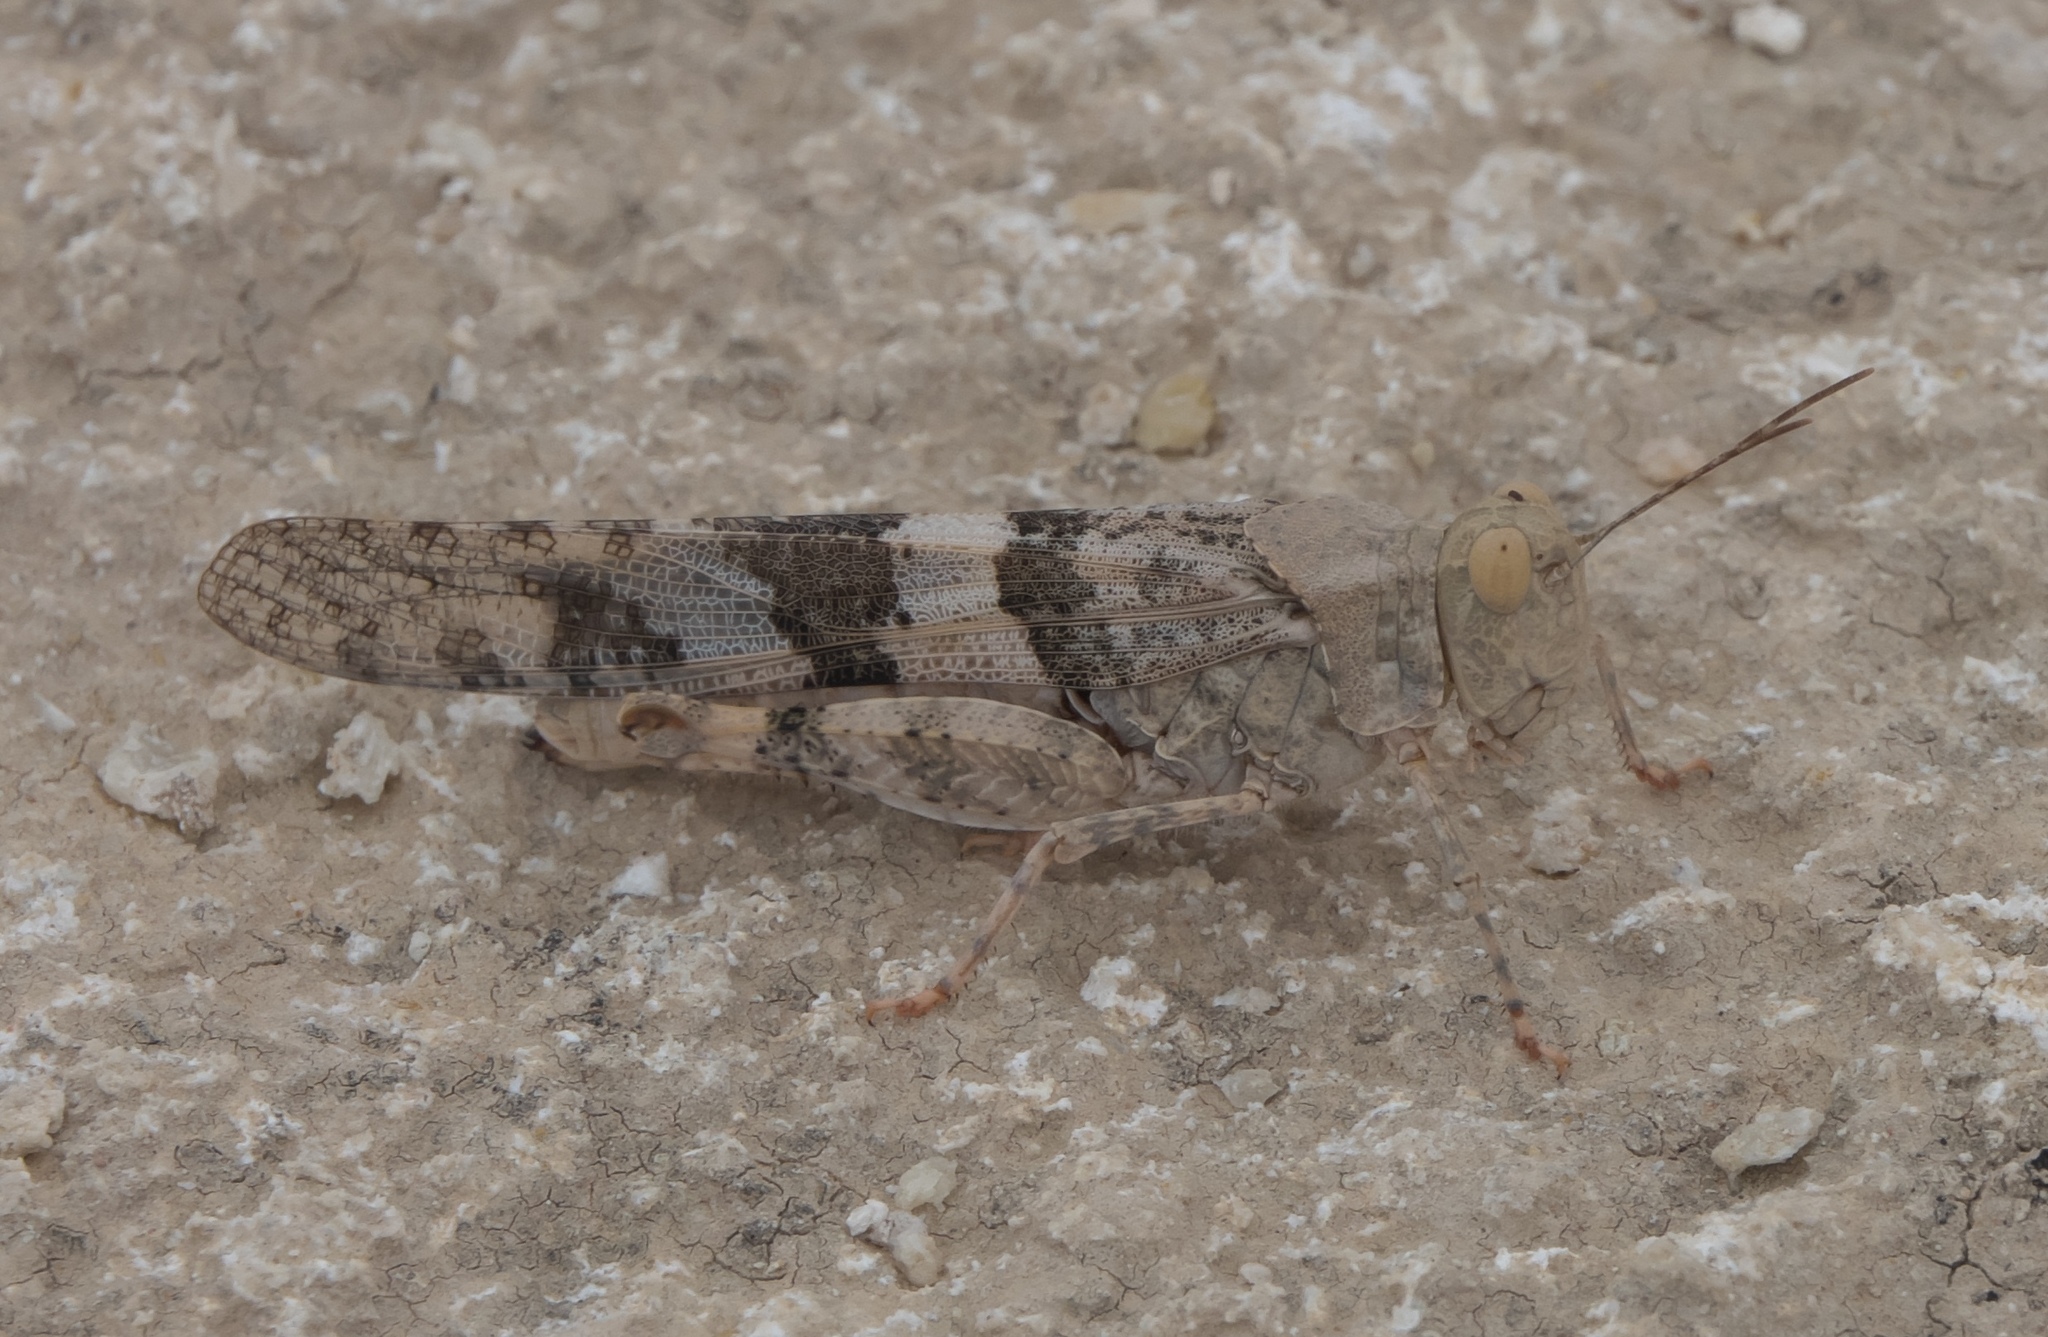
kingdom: Animalia
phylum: Arthropoda
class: Insecta
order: Orthoptera
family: Acrididae
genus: Trimerotropis
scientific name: Trimerotropis pallidipennis
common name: Pallid-winged grasshopper
